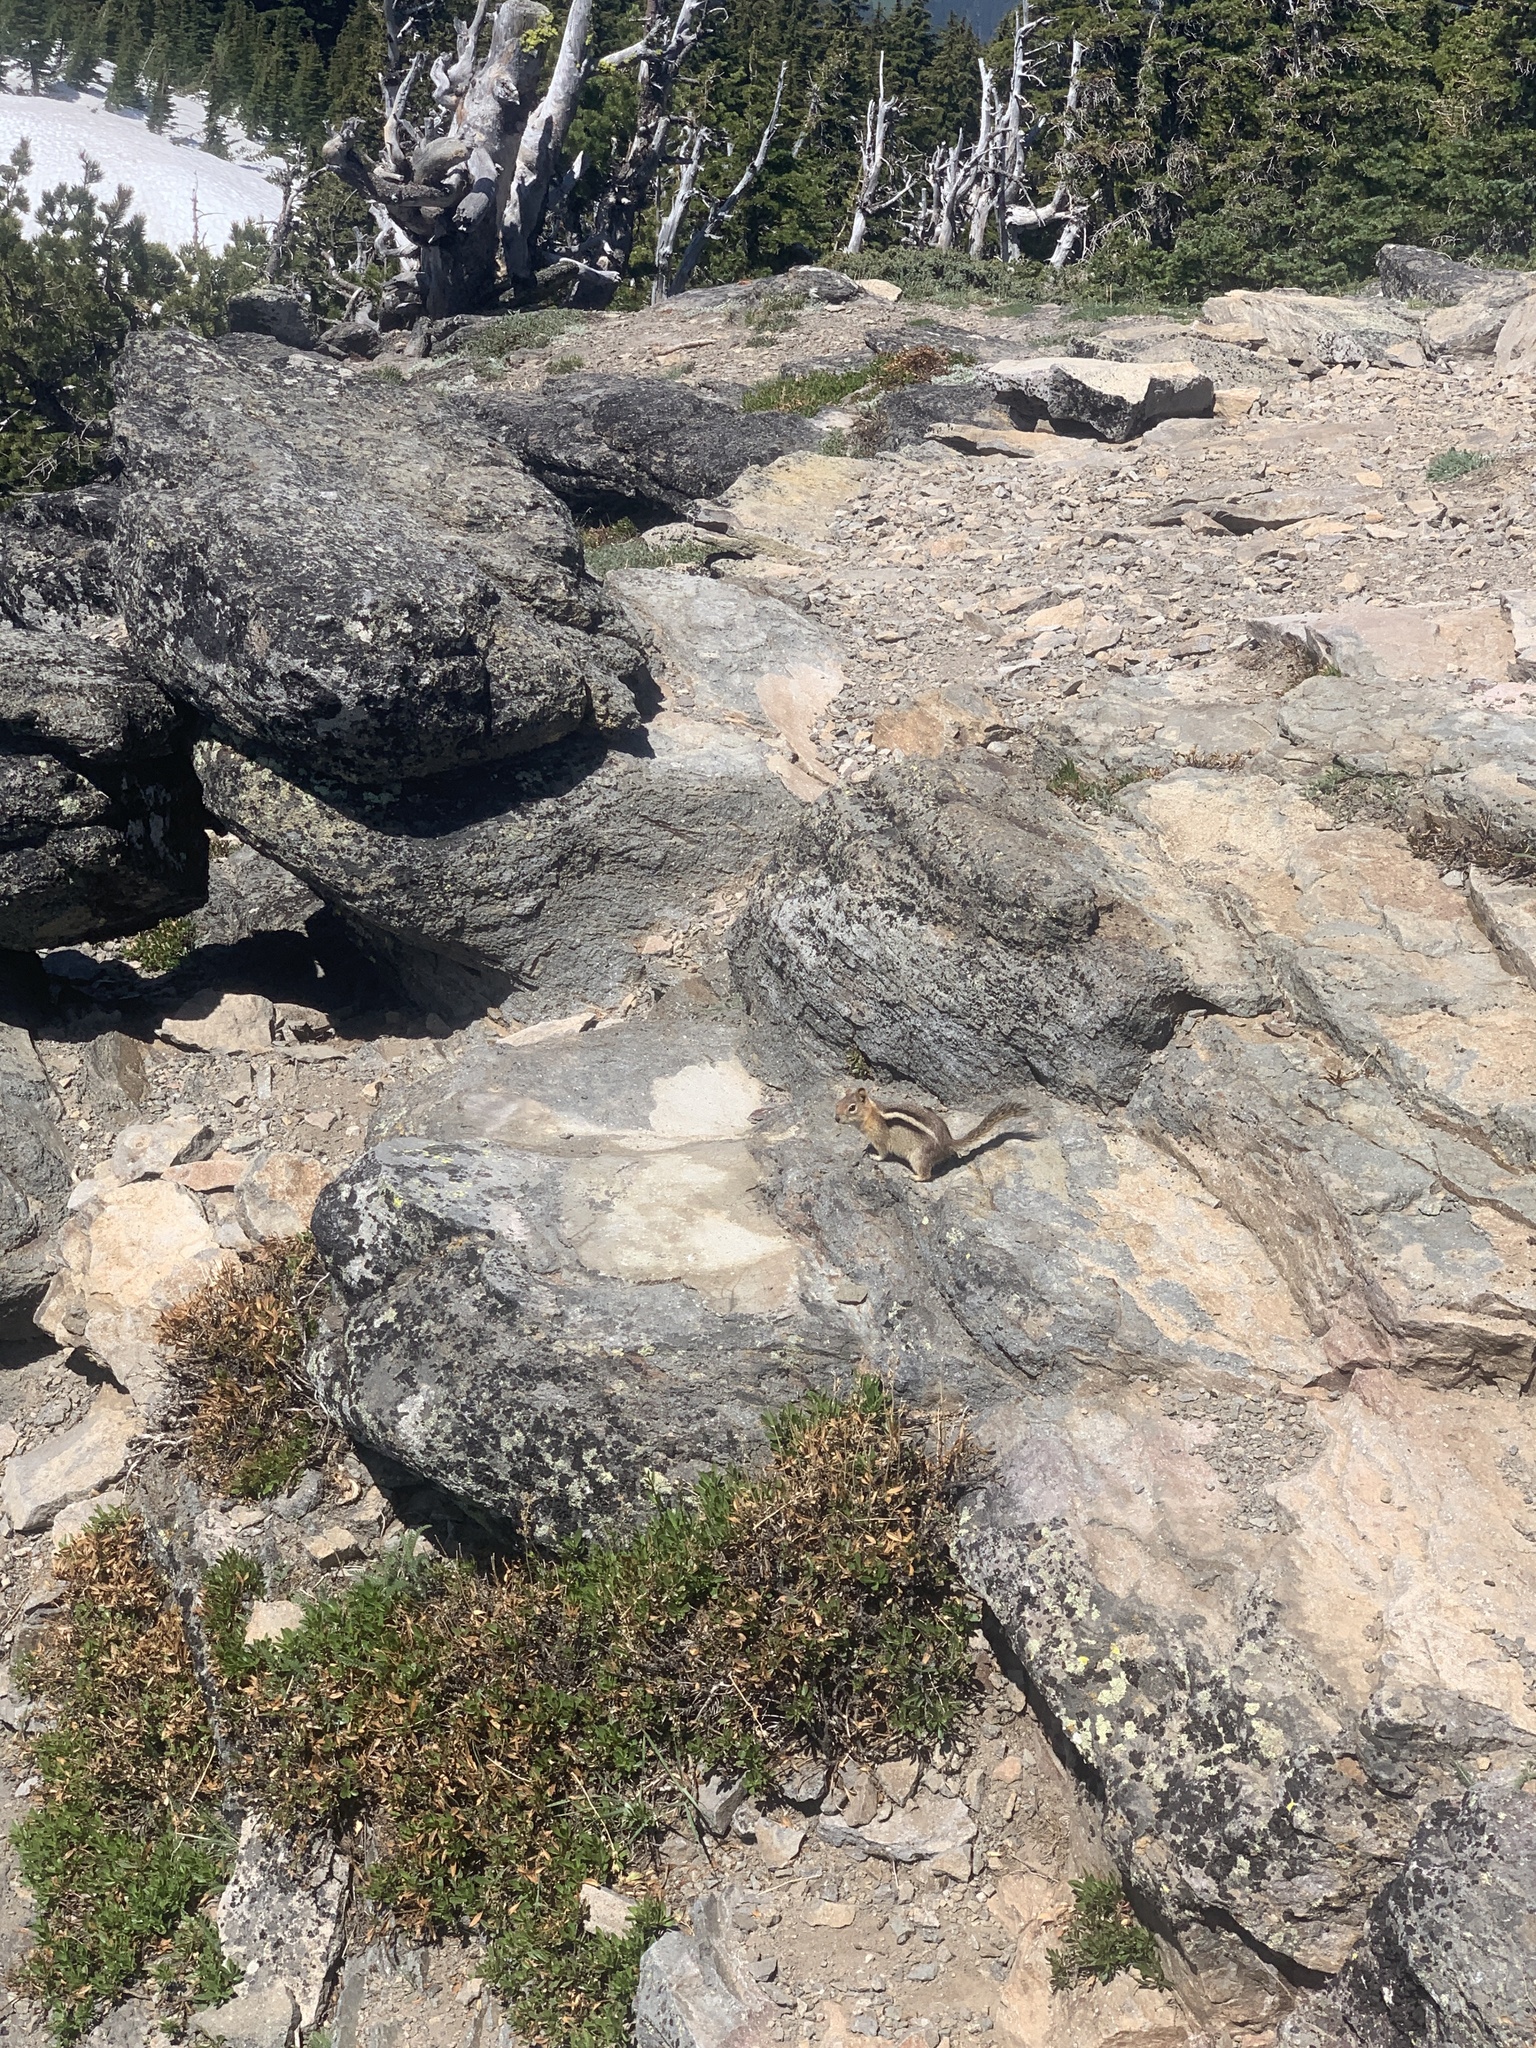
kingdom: Animalia
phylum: Chordata
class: Mammalia
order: Rodentia
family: Sciuridae
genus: Callospermophilus
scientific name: Callospermophilus lateralis
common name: Golden-mantled ground squirrel
